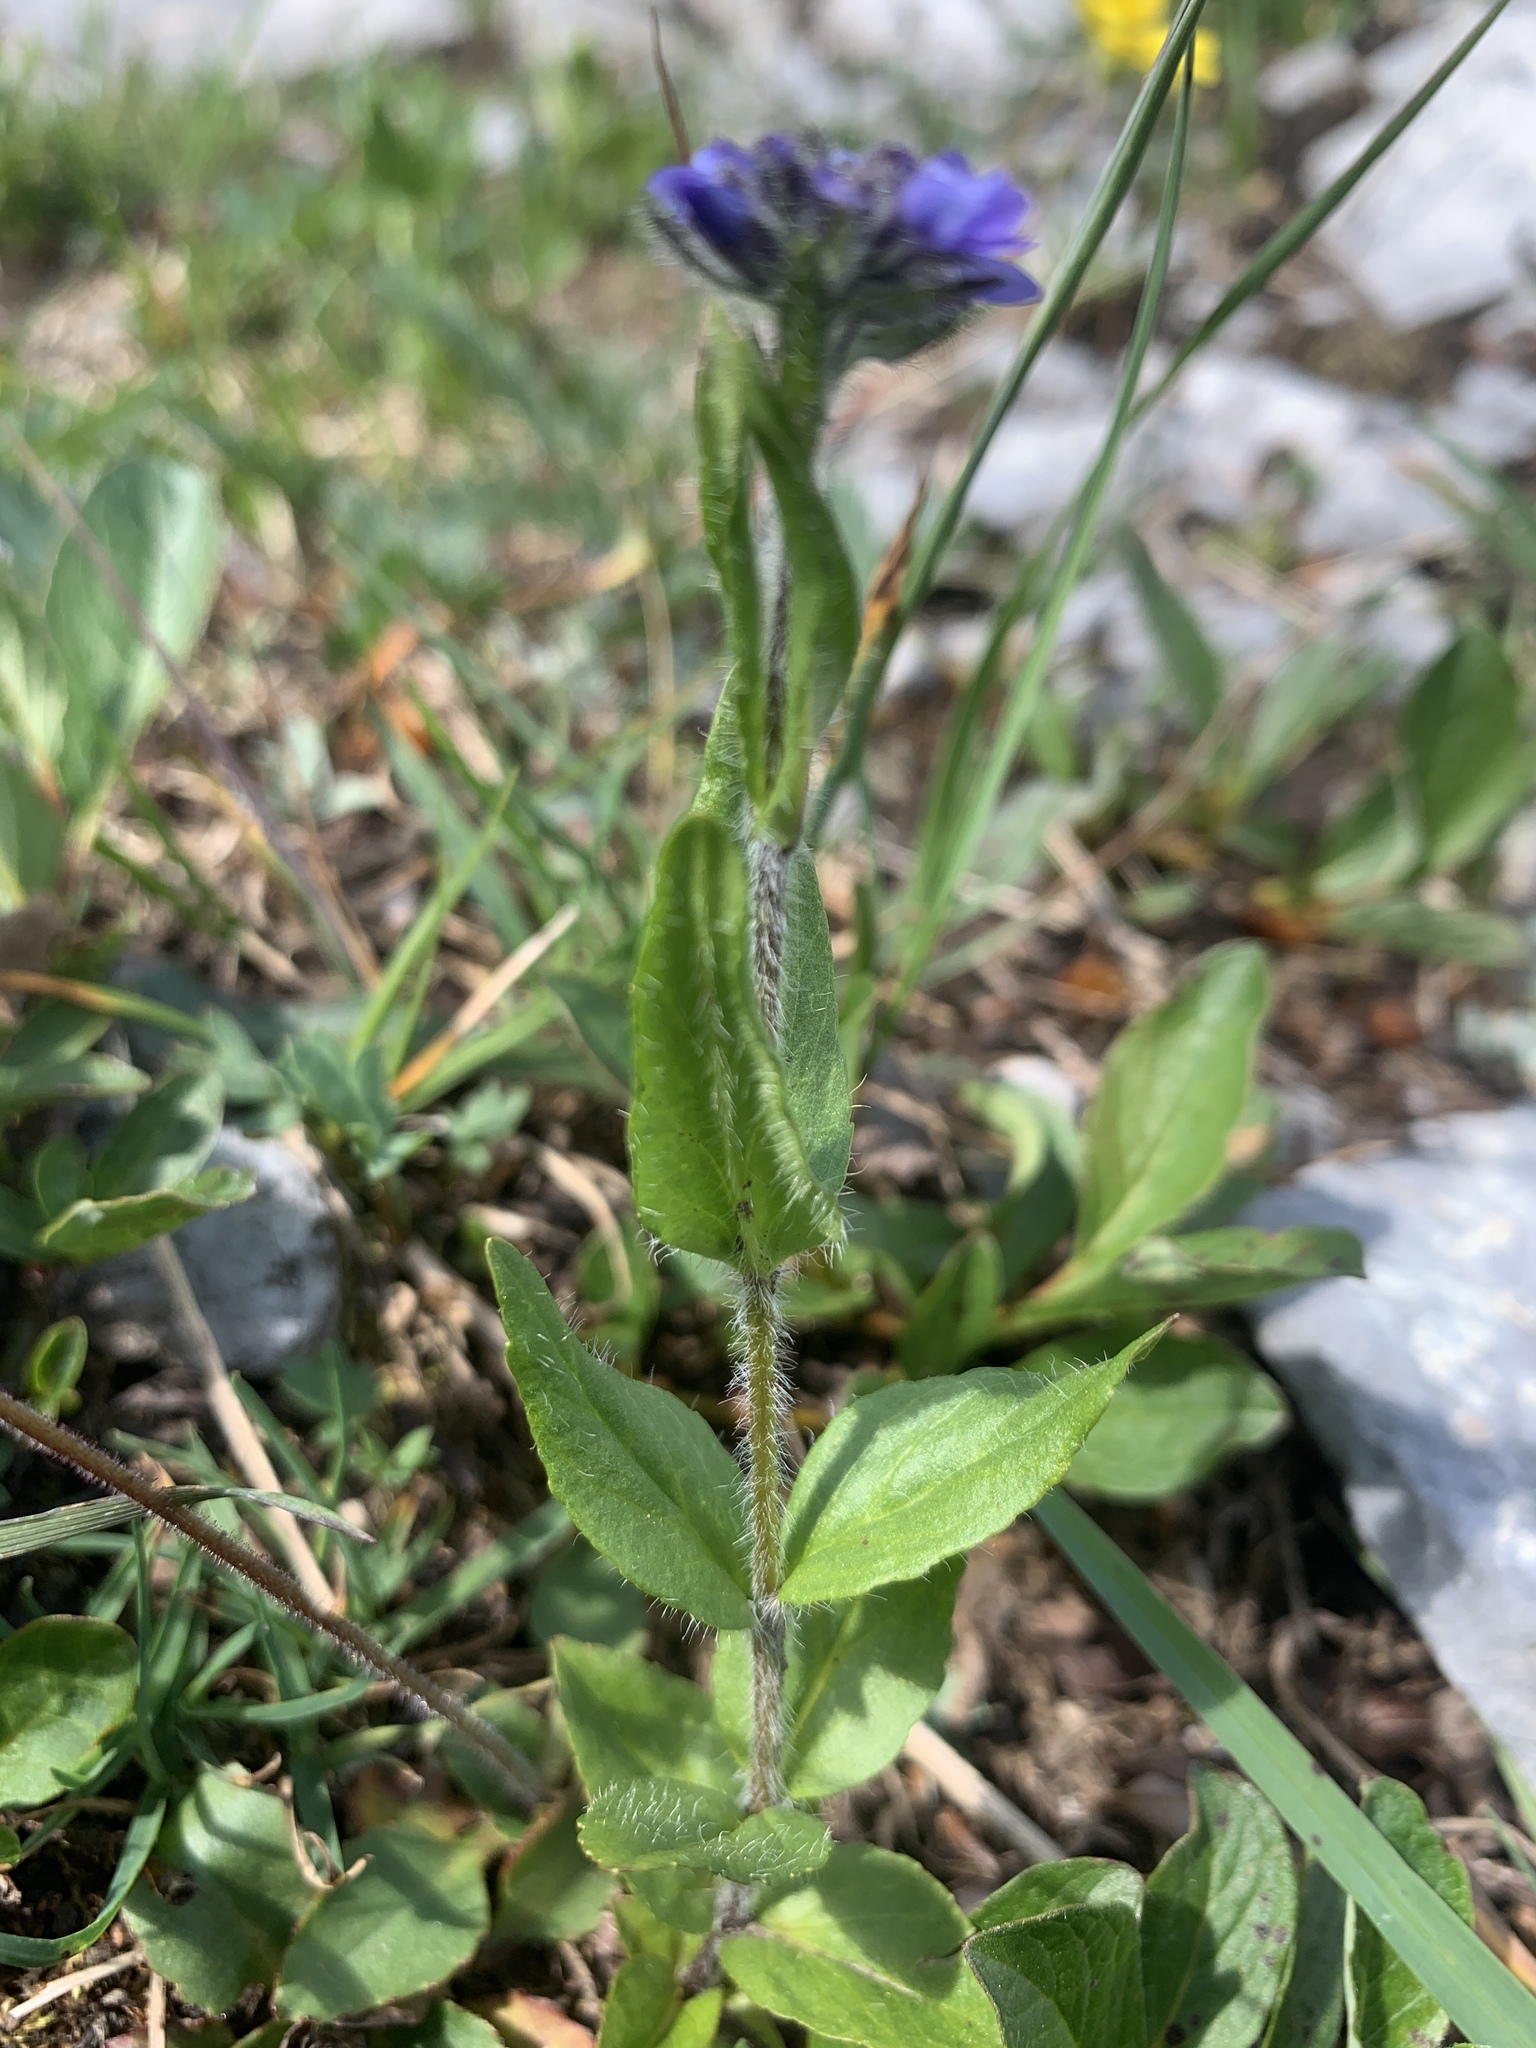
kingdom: Plantae
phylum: Tracheophyta
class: Magnoliopsida
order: Lamiales
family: Plantaginaceae
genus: Veronica
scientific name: Veronica wormskjoldii
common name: American alpine speedwell
